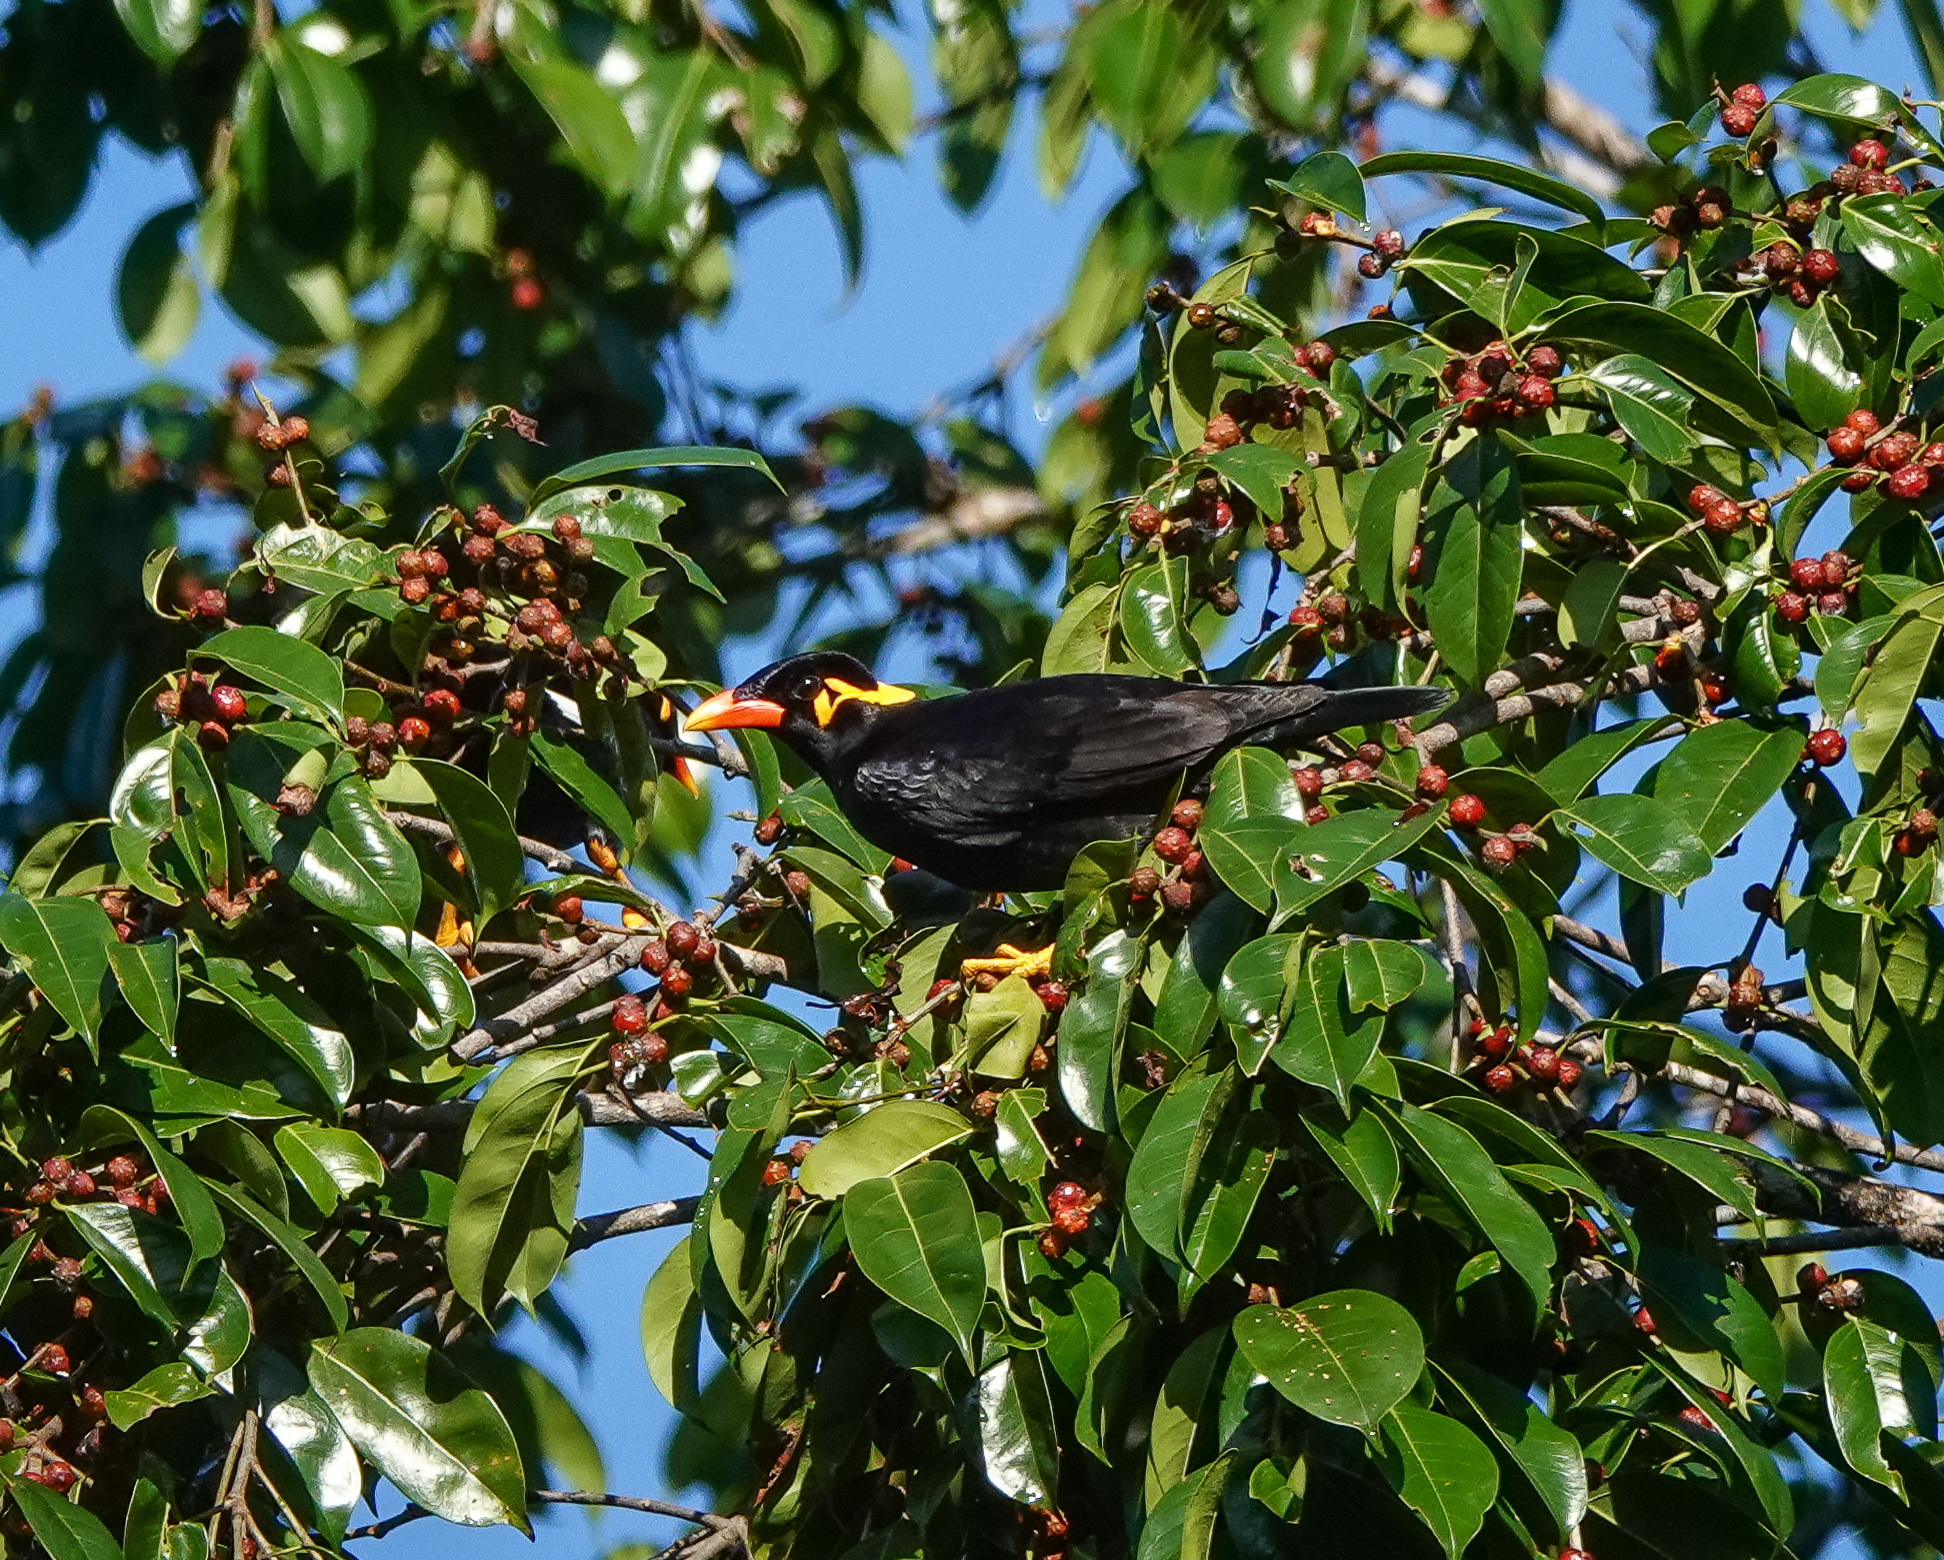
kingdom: Animalia
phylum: Chordata
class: Aves
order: Passeriformes
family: Sturnidae
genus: Gracula
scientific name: Gracula religiosa
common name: Common hill myna
